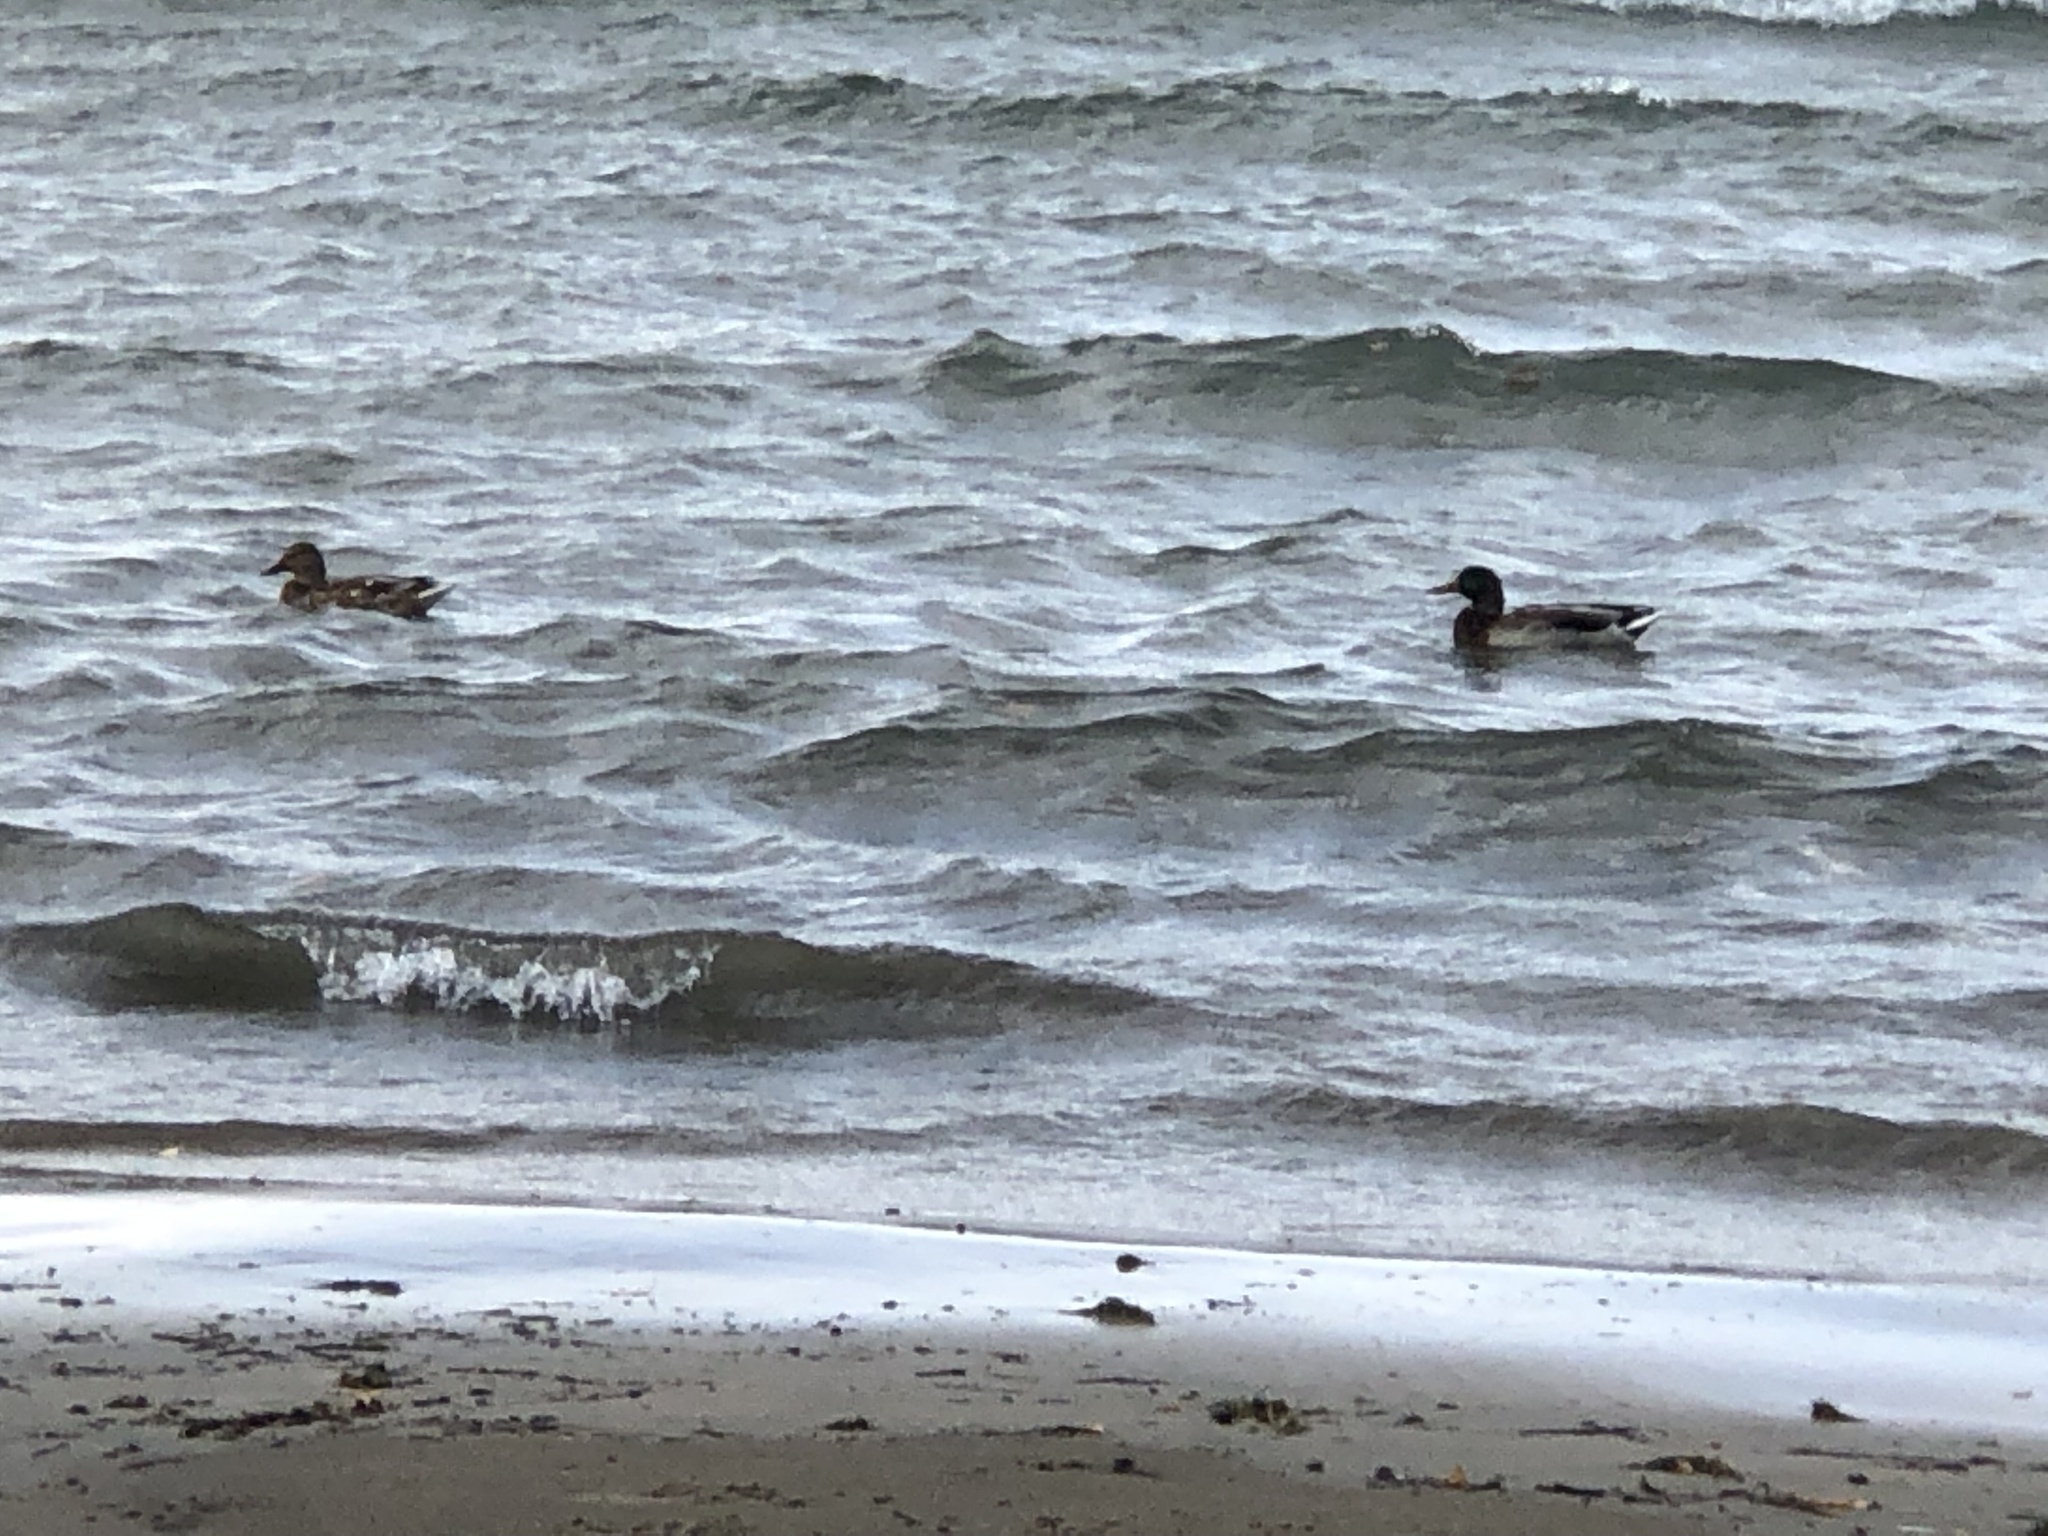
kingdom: Animalia
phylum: Chordata
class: Aves
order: Anseriformes
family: Anatidae
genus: Anas
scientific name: Anas platyrhynchos
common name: Mallard
